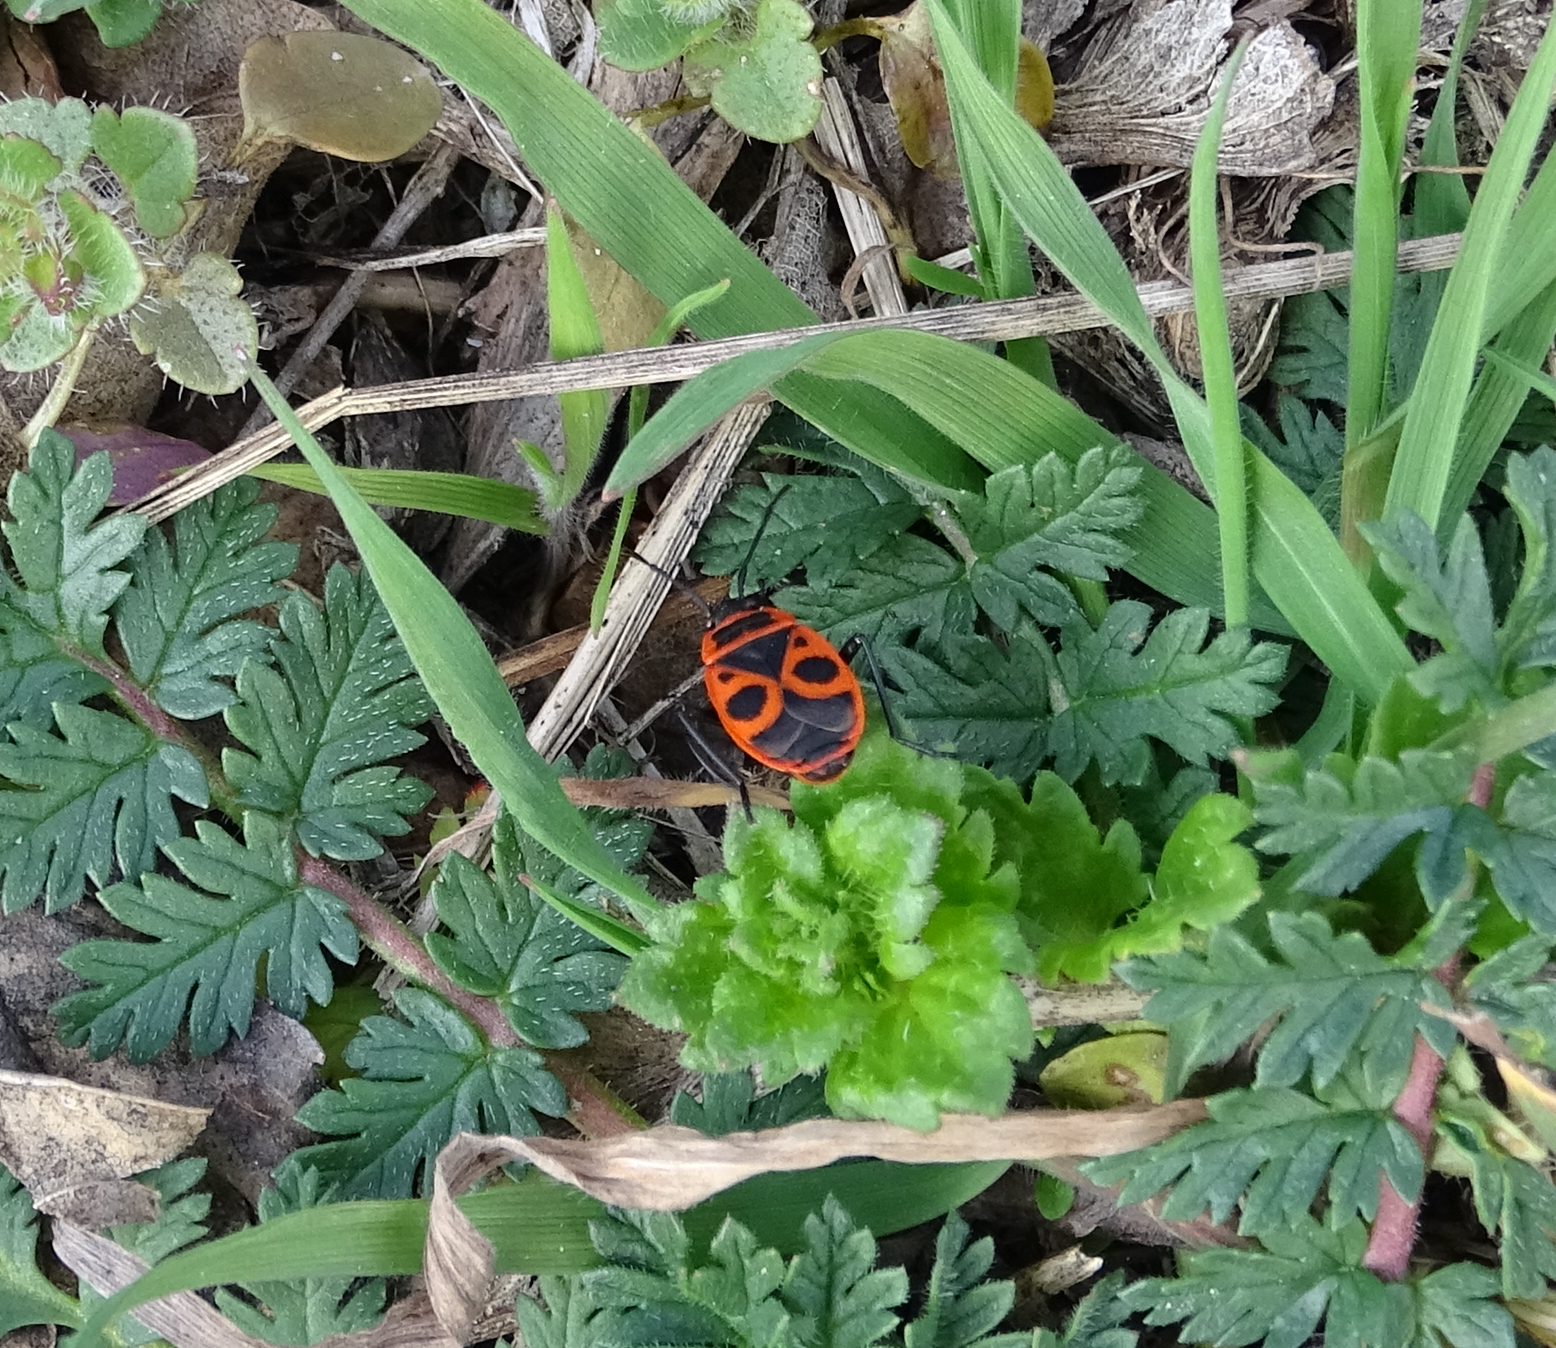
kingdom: Animalia
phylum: Arthropoda
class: Insecta
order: Hemiptera
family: Pyrrhocoridae
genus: Pyrrhocoris
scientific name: Pyrrhocoris apterus
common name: Firebug
